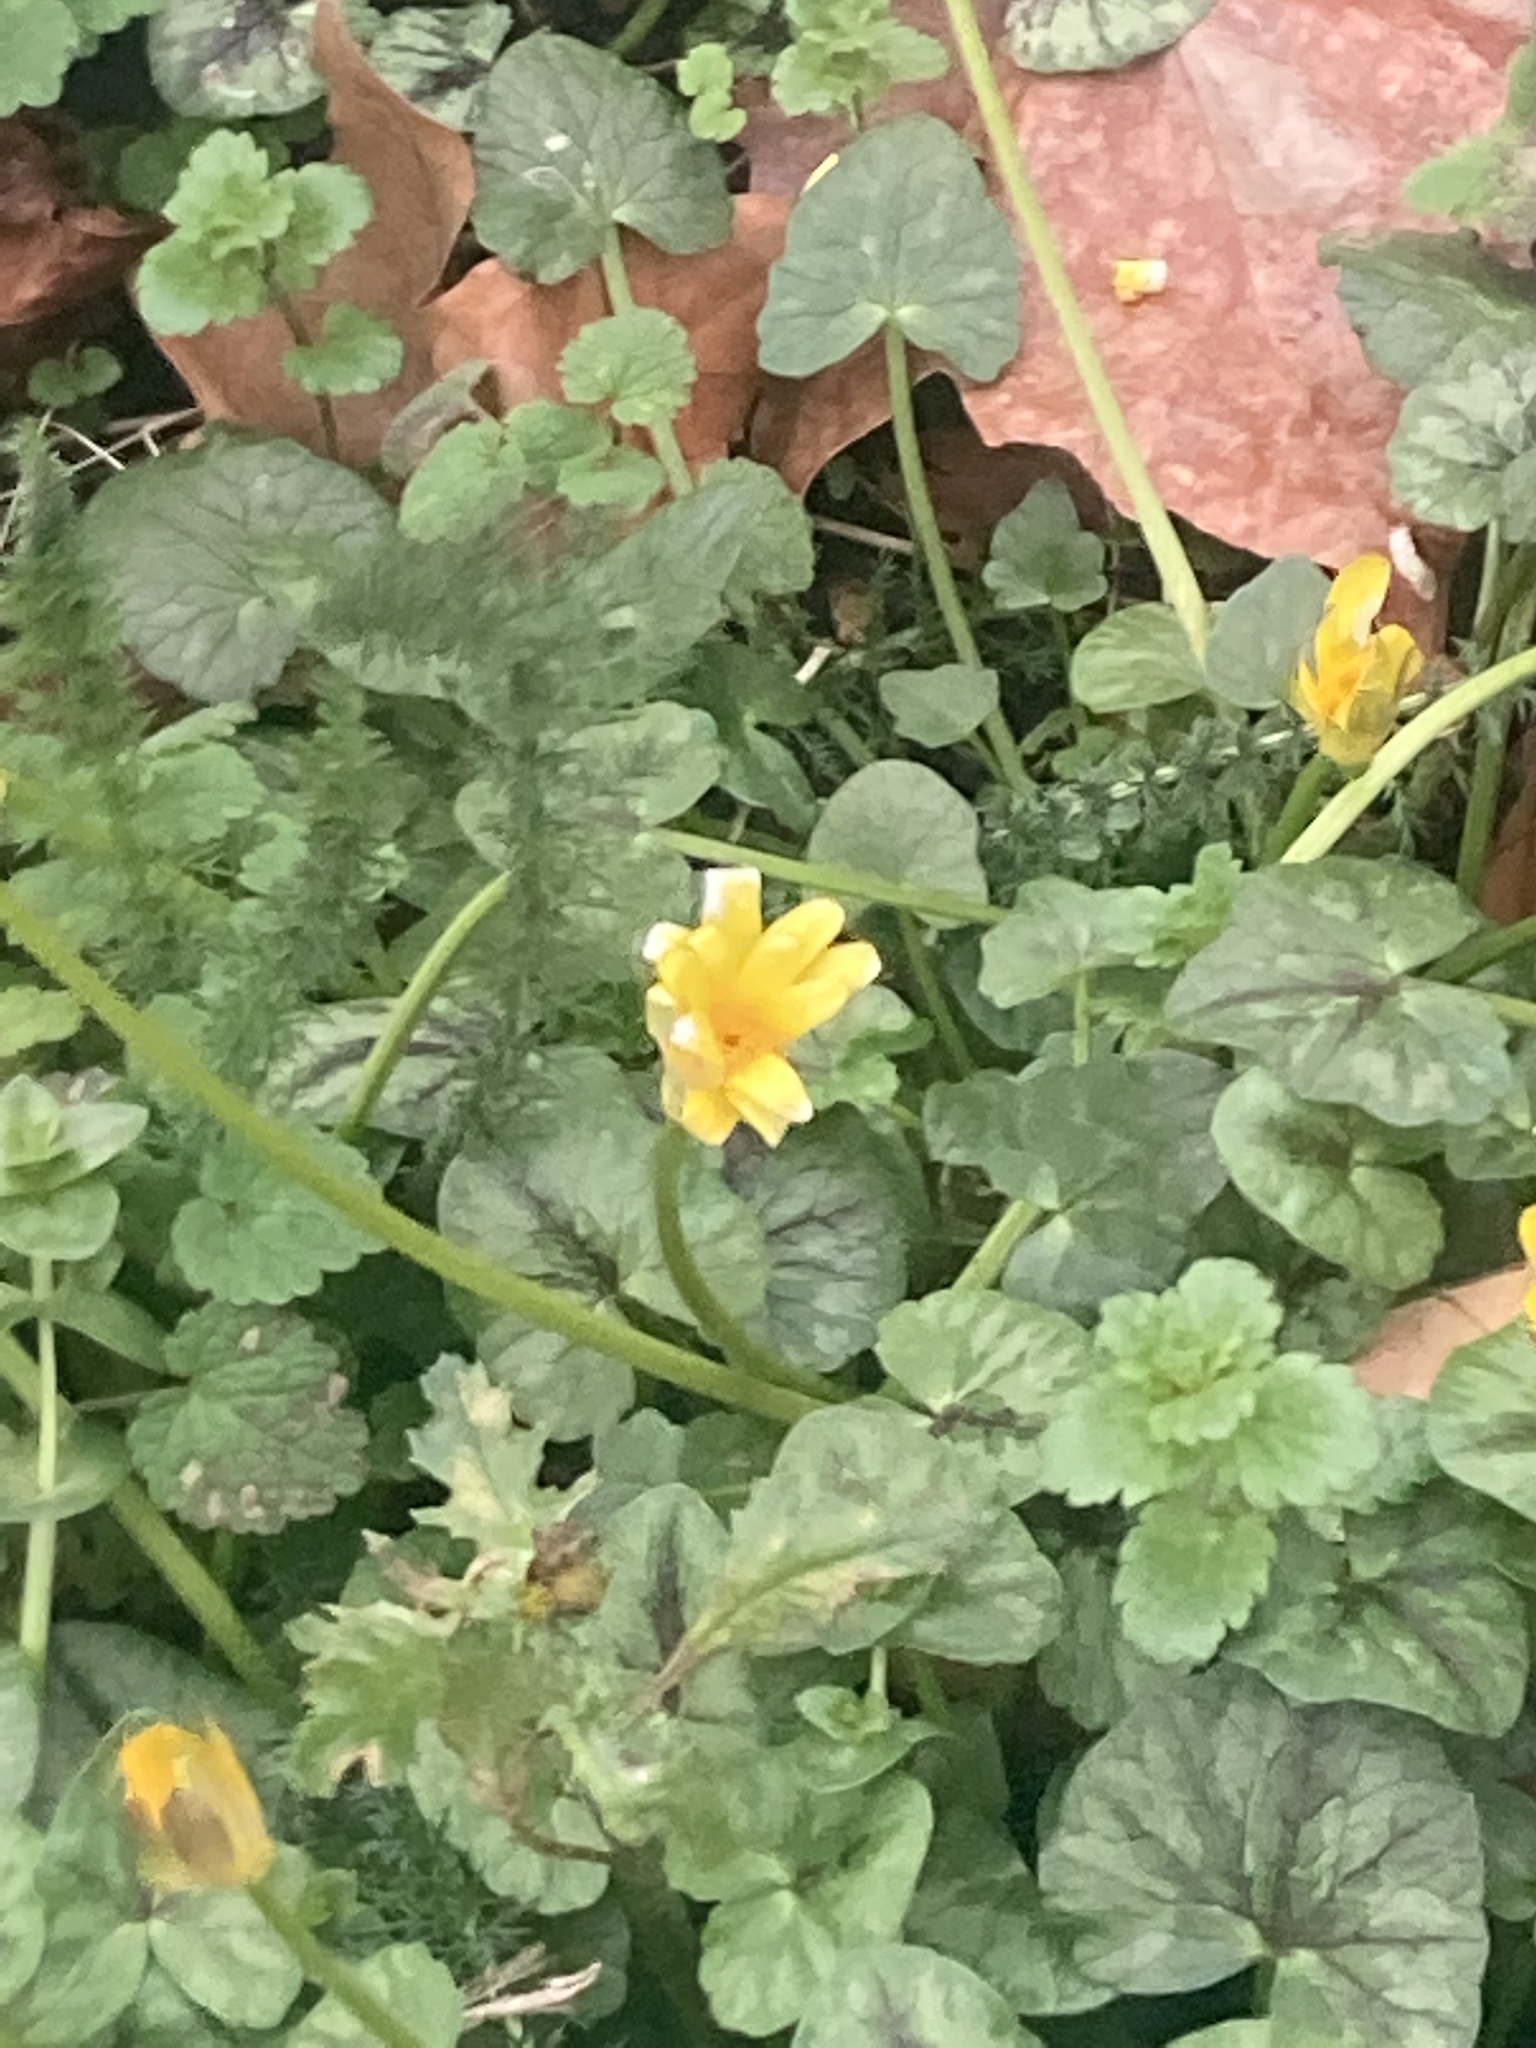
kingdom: Plantae
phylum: Tracheophyta
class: Magnoliopsida
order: Ranunculales
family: Ranunculaceae
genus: Ficaria
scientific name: Ficaria verna
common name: Lesser celandine
